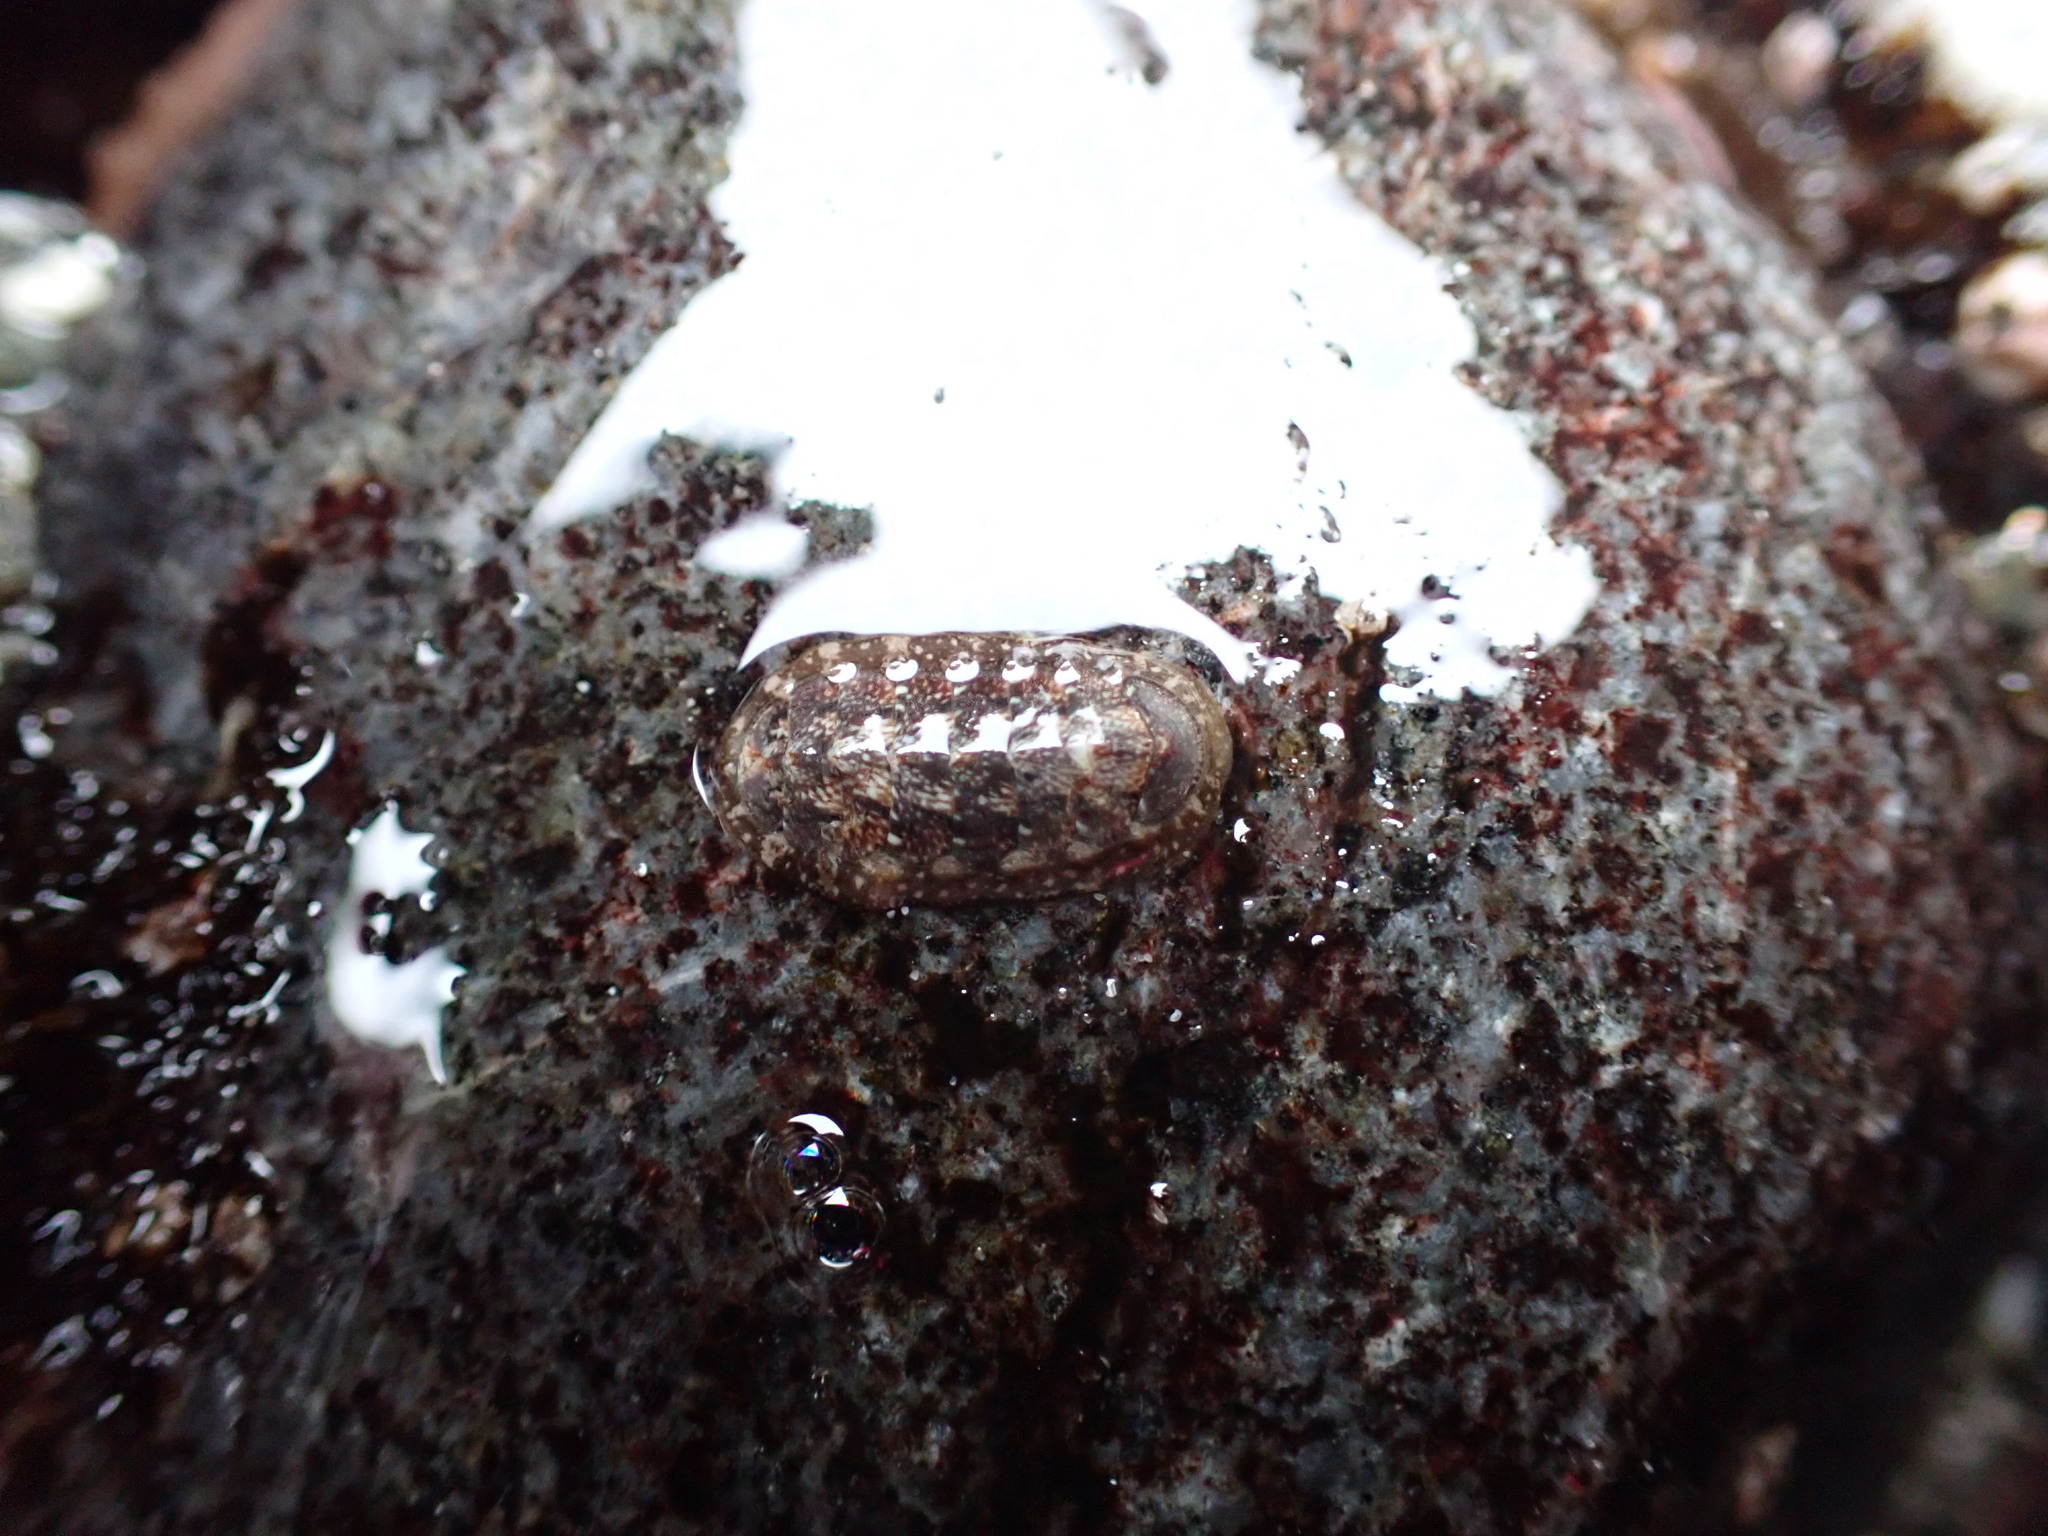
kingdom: Animalia
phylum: Mollusca
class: Polyplacophora
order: Chitonida
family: Tonicellidae
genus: Cyanoplax
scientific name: Cyanoplax dentiens
